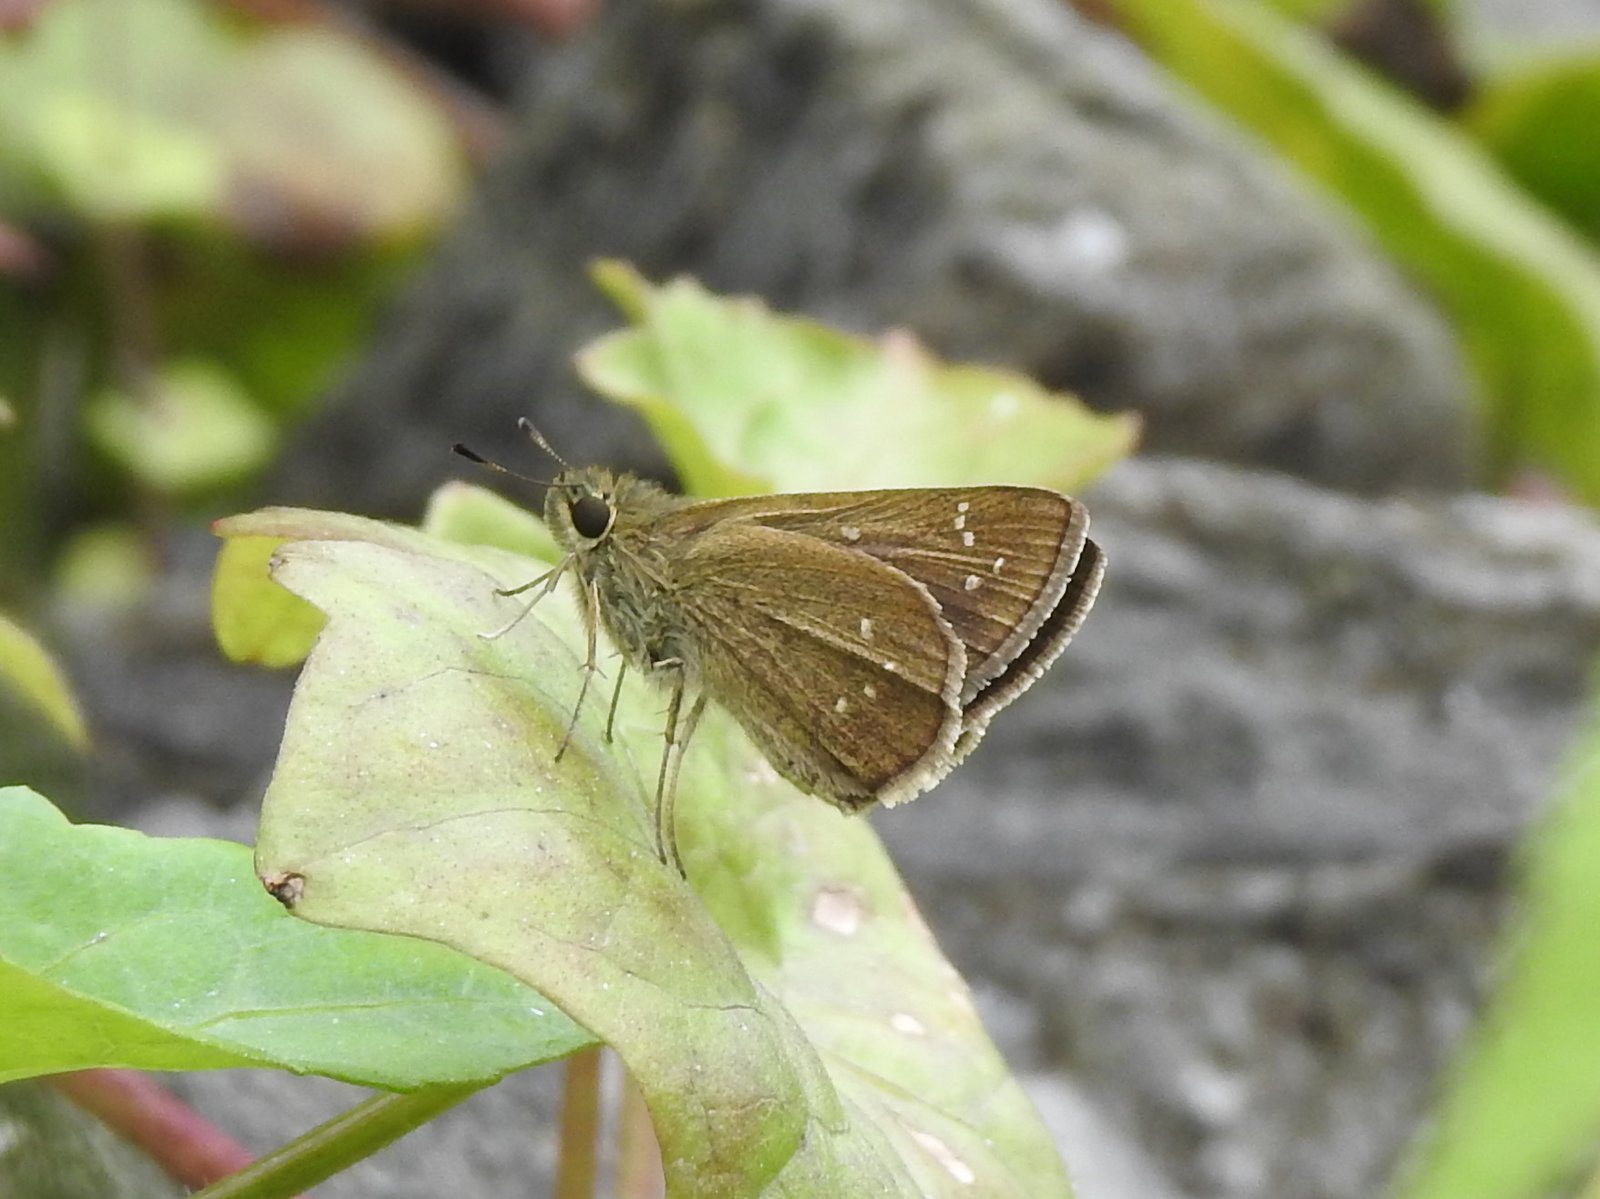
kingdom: Animalia
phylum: Arthropoda
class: Insecta
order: Lepidoptera
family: Hesperiidae
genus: Borbo
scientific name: Borbo cinnara
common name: Formosan swift
